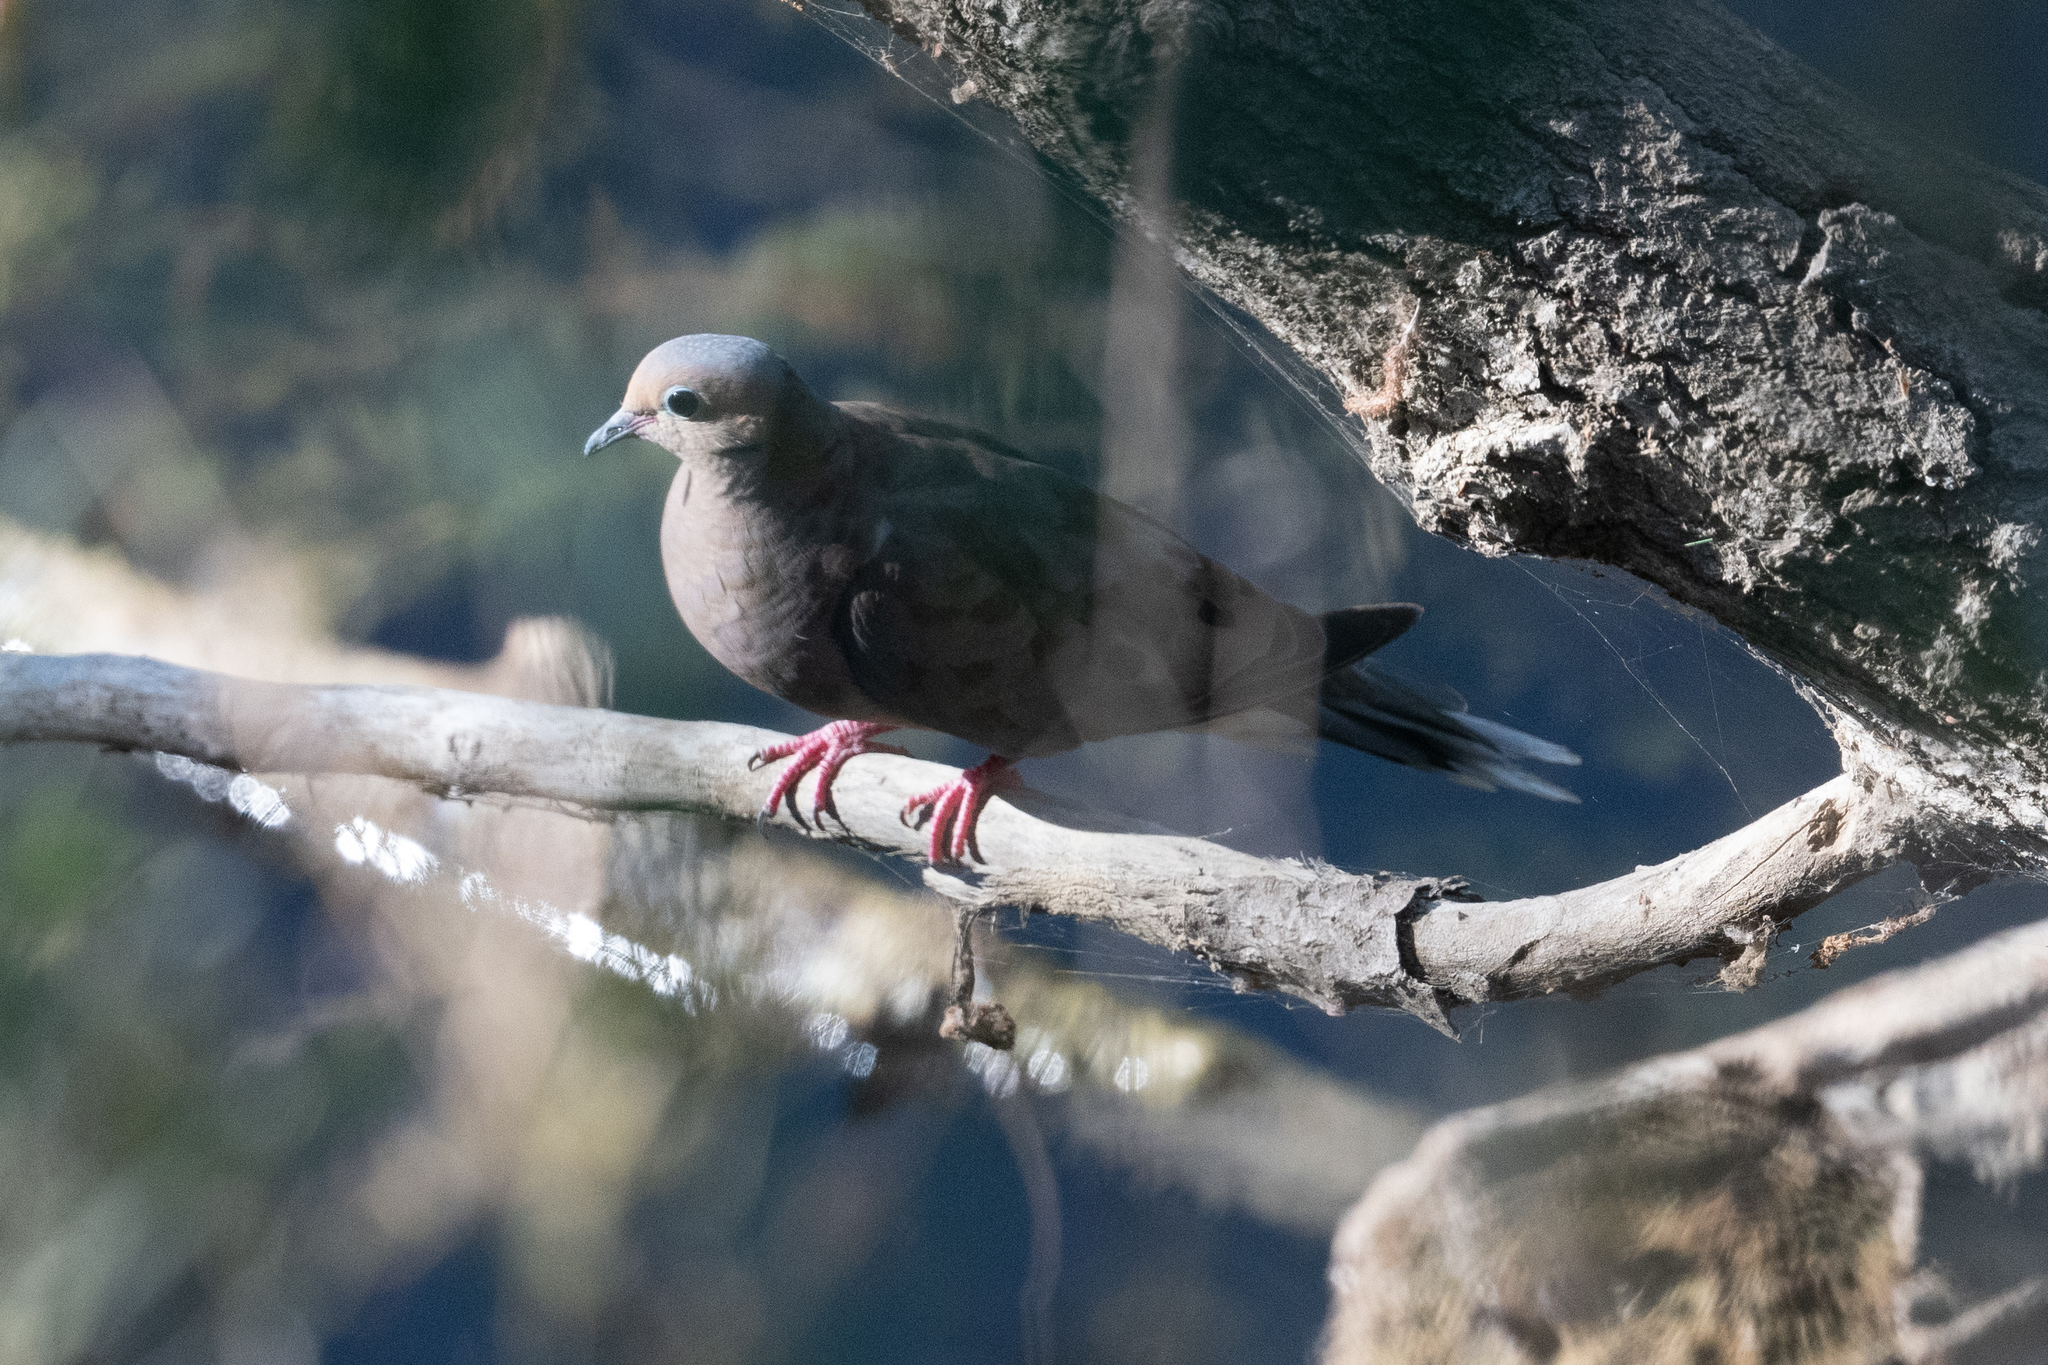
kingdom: Animalia
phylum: Chordata
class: Aves
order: Columbiformes
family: Columbidae
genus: Zenaida
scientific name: Zenaida macroura
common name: Mourning dove
